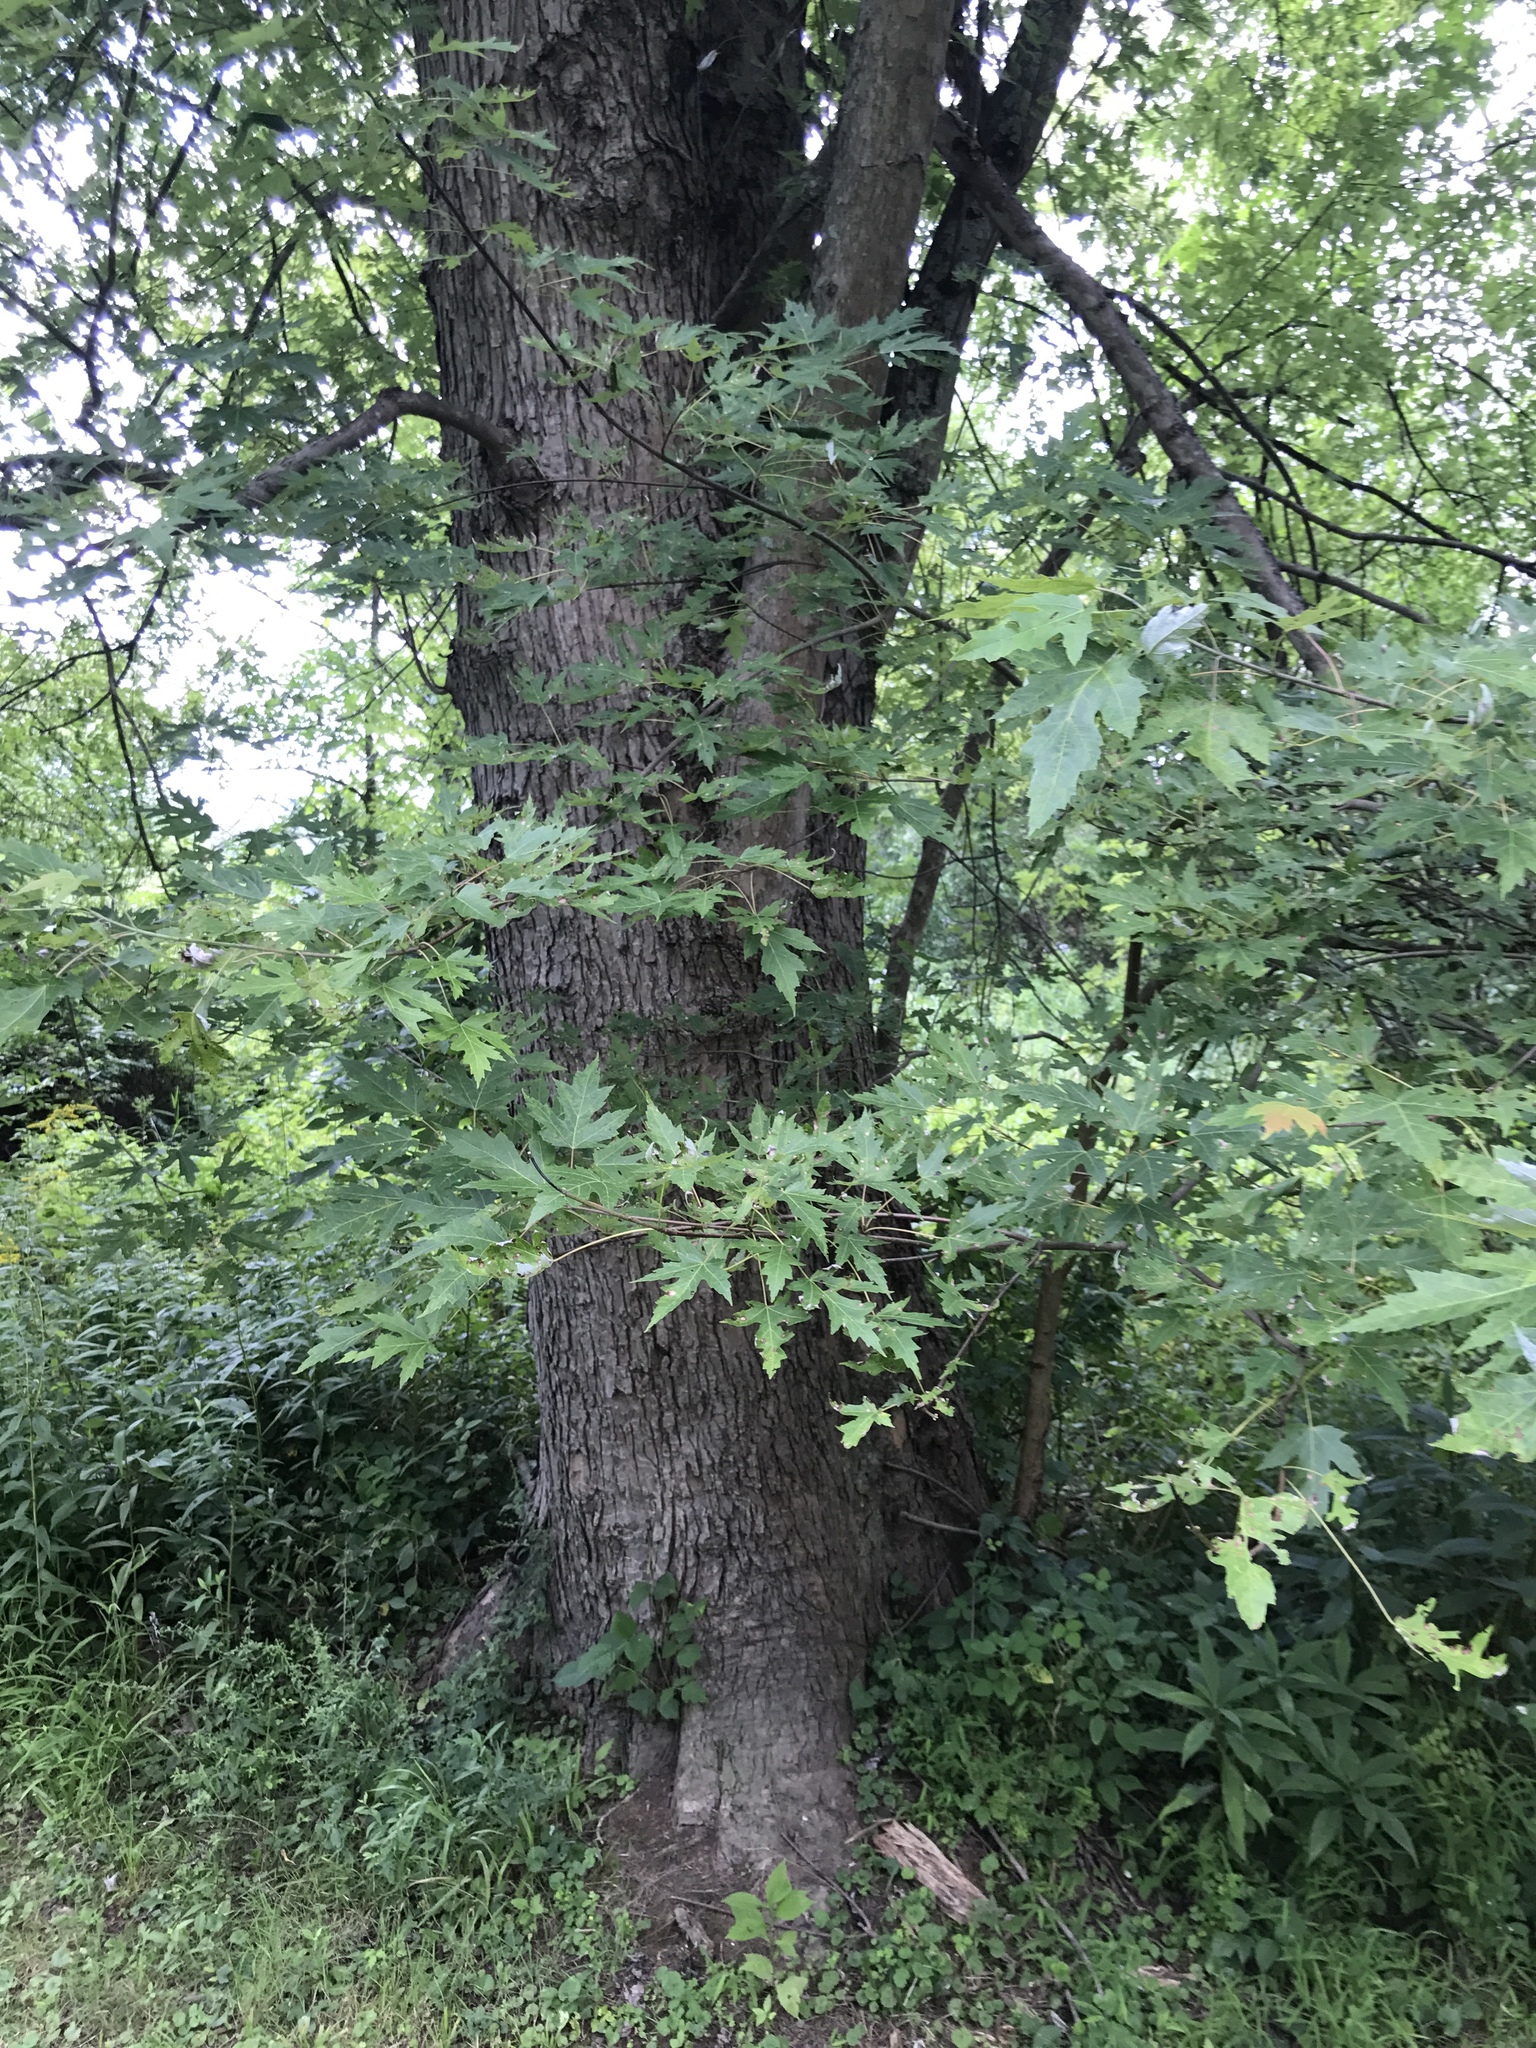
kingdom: Plantae
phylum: Tracheophyta
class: Magnoliopsida
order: Sapindales
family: Sapindaceae
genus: Acer
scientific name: Acer saccharinum
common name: Silver maple
